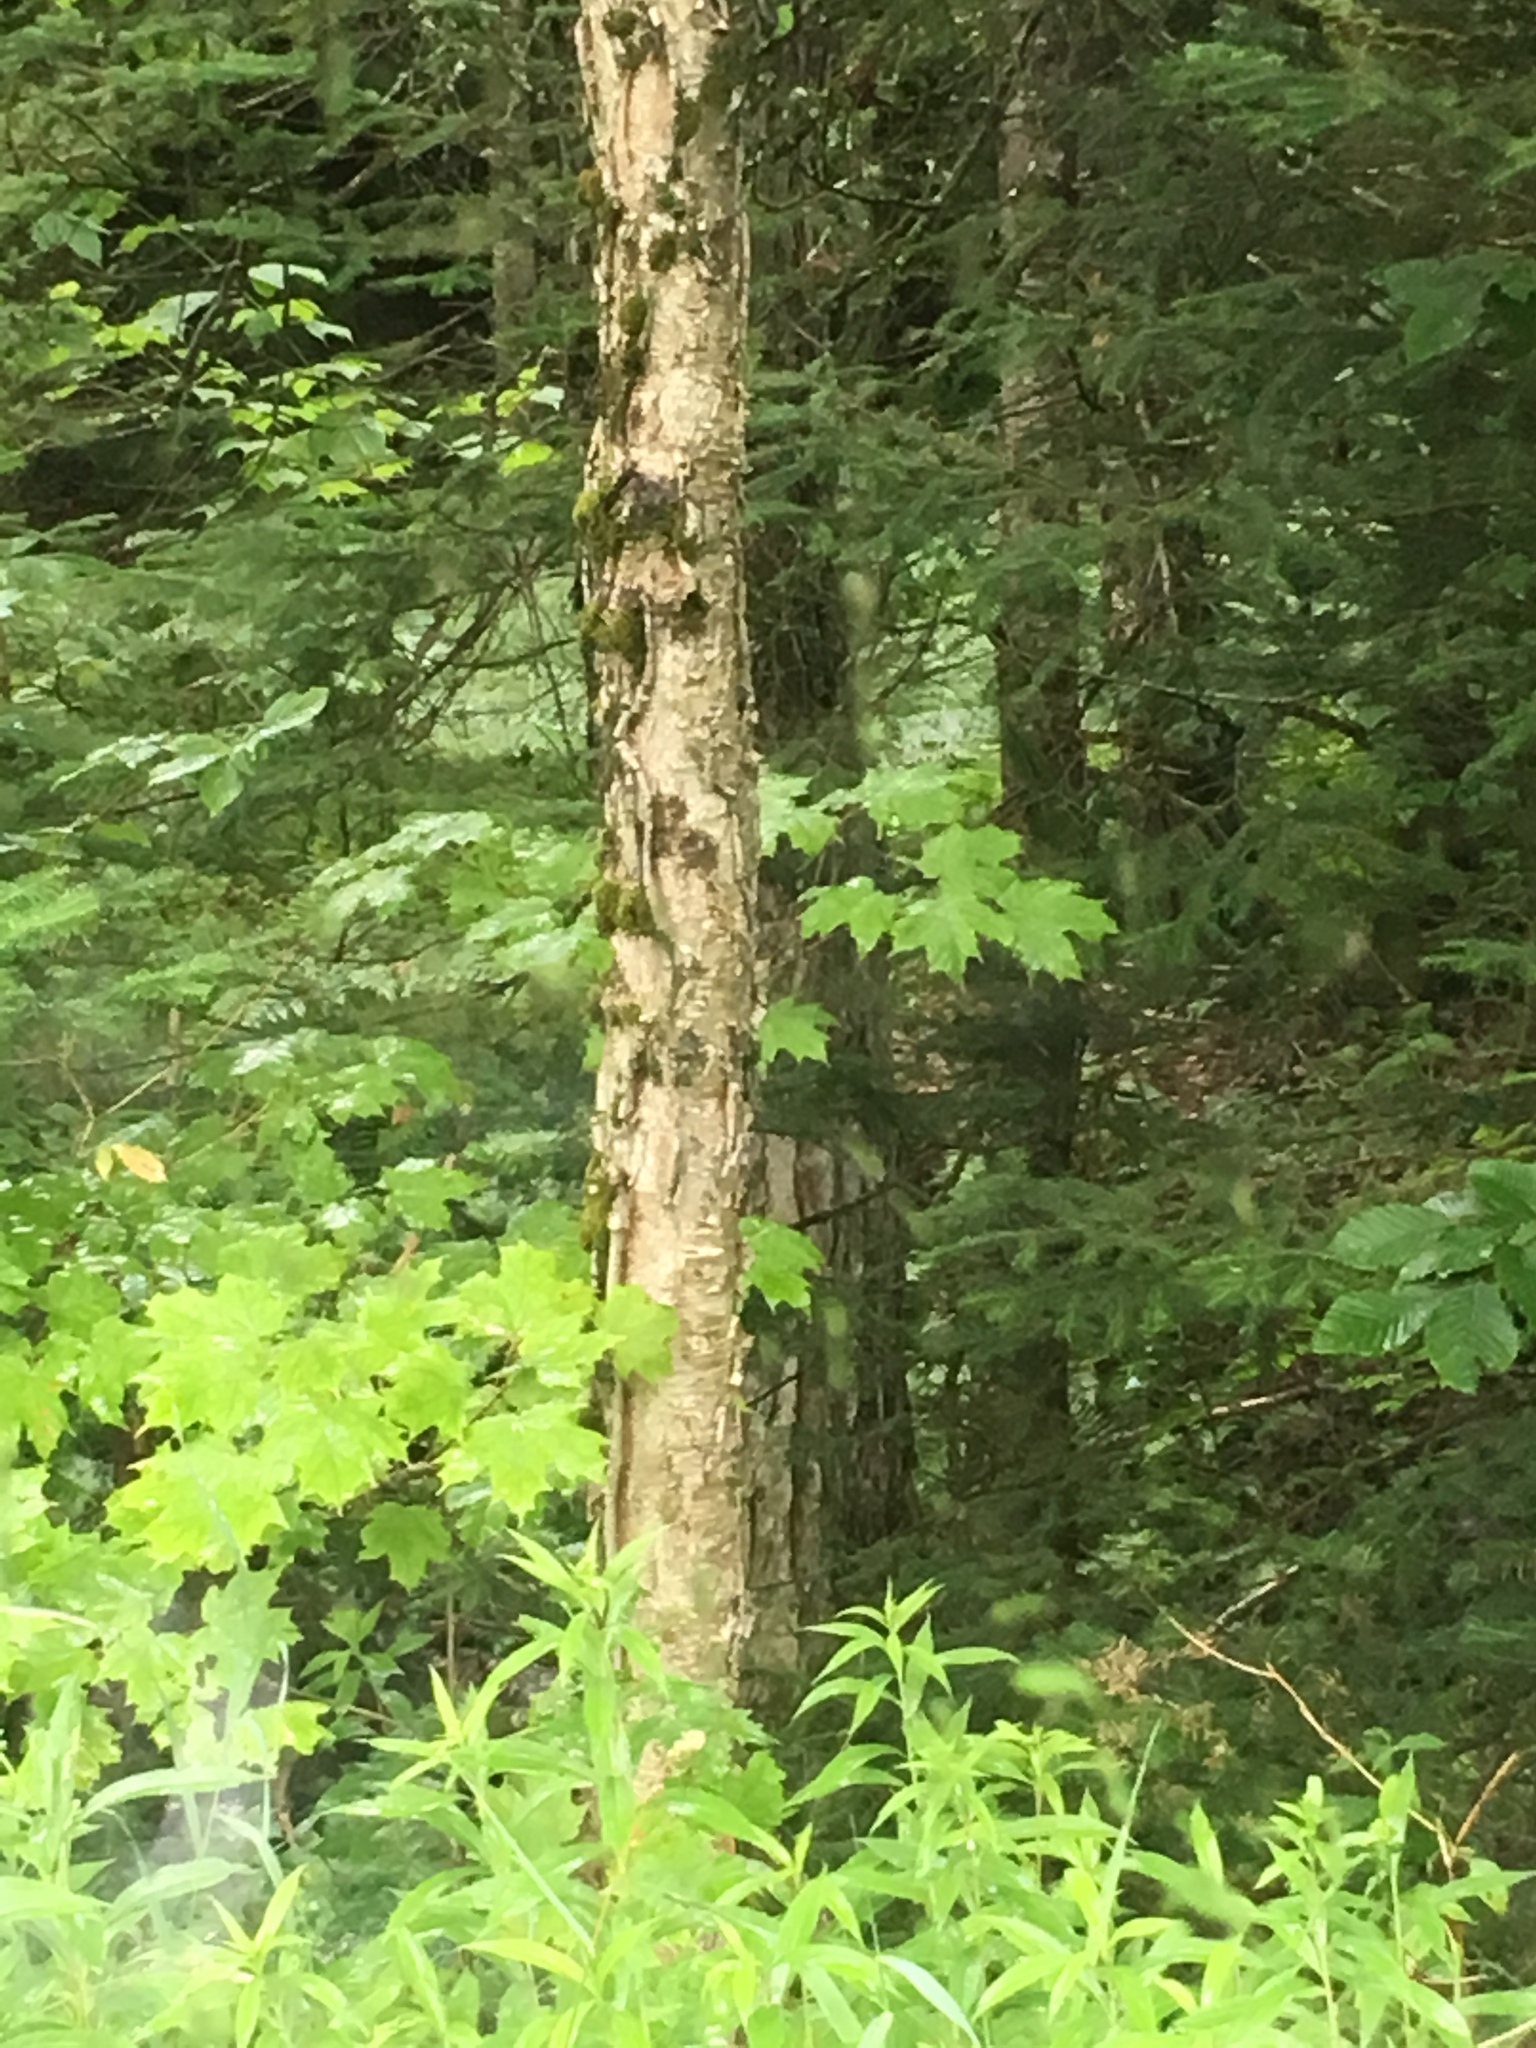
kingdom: Plantae
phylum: Tracheophyta
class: Magnoliopsida
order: Fagales
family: Betulaceae
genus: Betula
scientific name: Betula alleghaniensis
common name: Yellow birch
